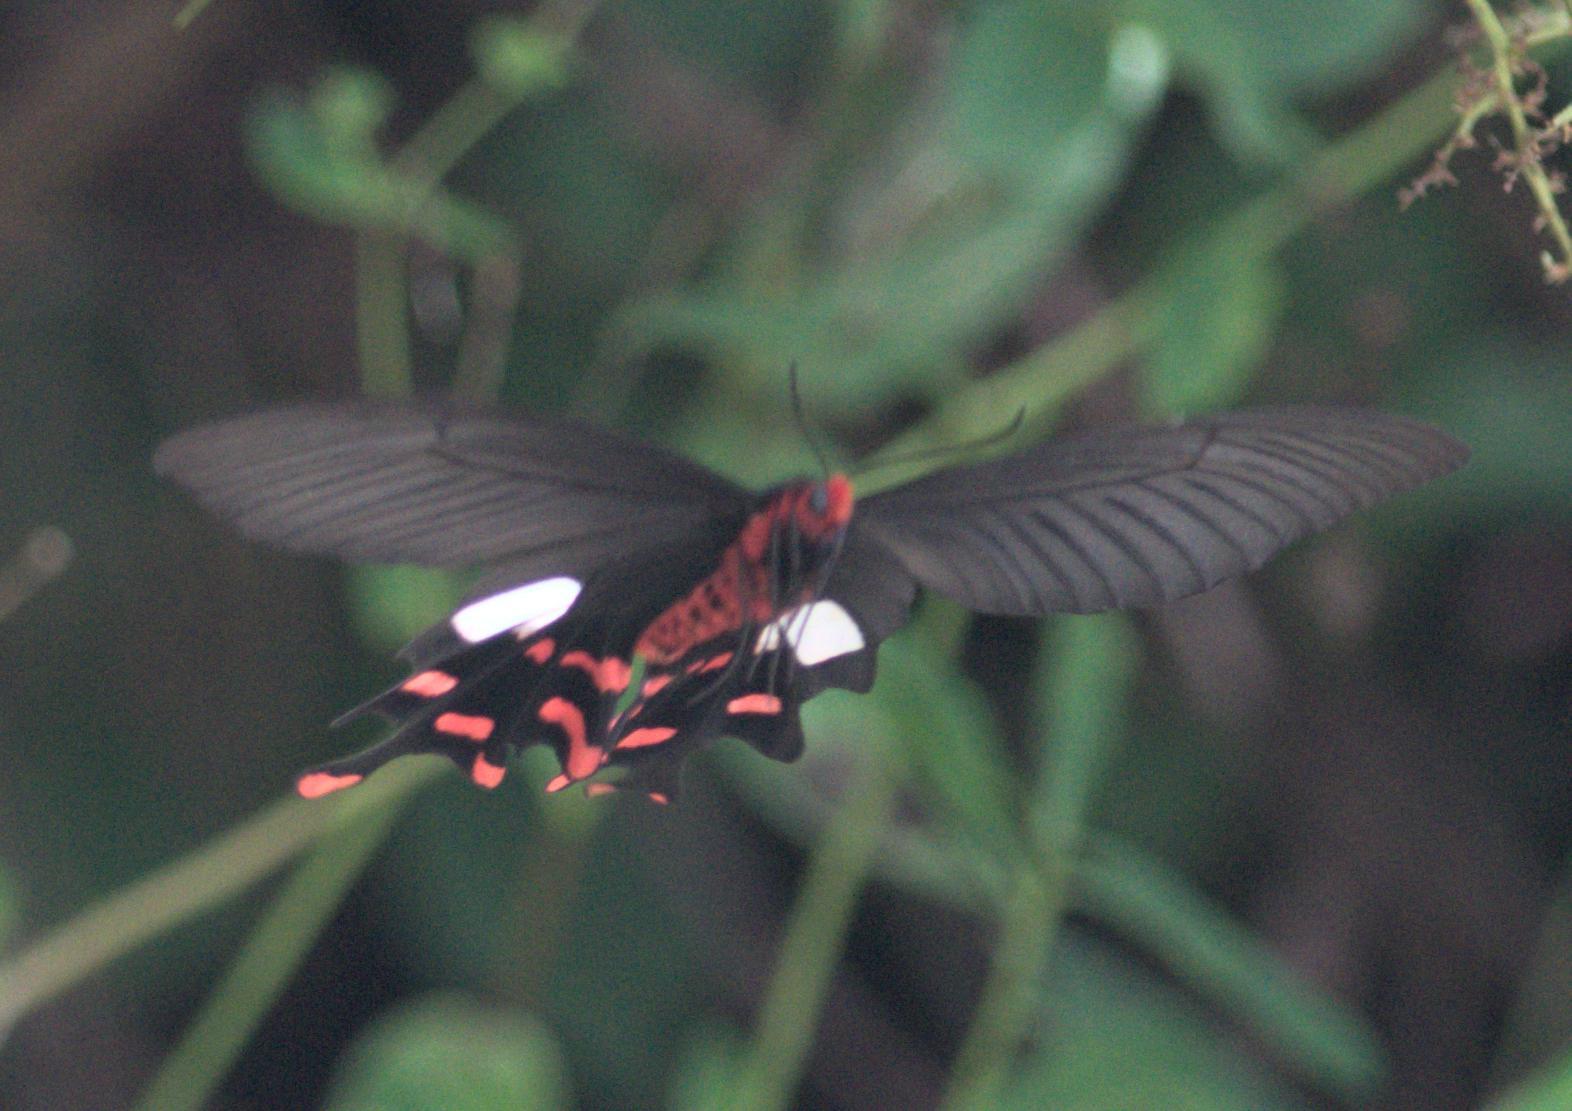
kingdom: Animalia
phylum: Arthropoda
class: Insecta
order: Lepidoptera
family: Papilionidae
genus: Byasa
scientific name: Byasa polyeuctes
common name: Common windmill
